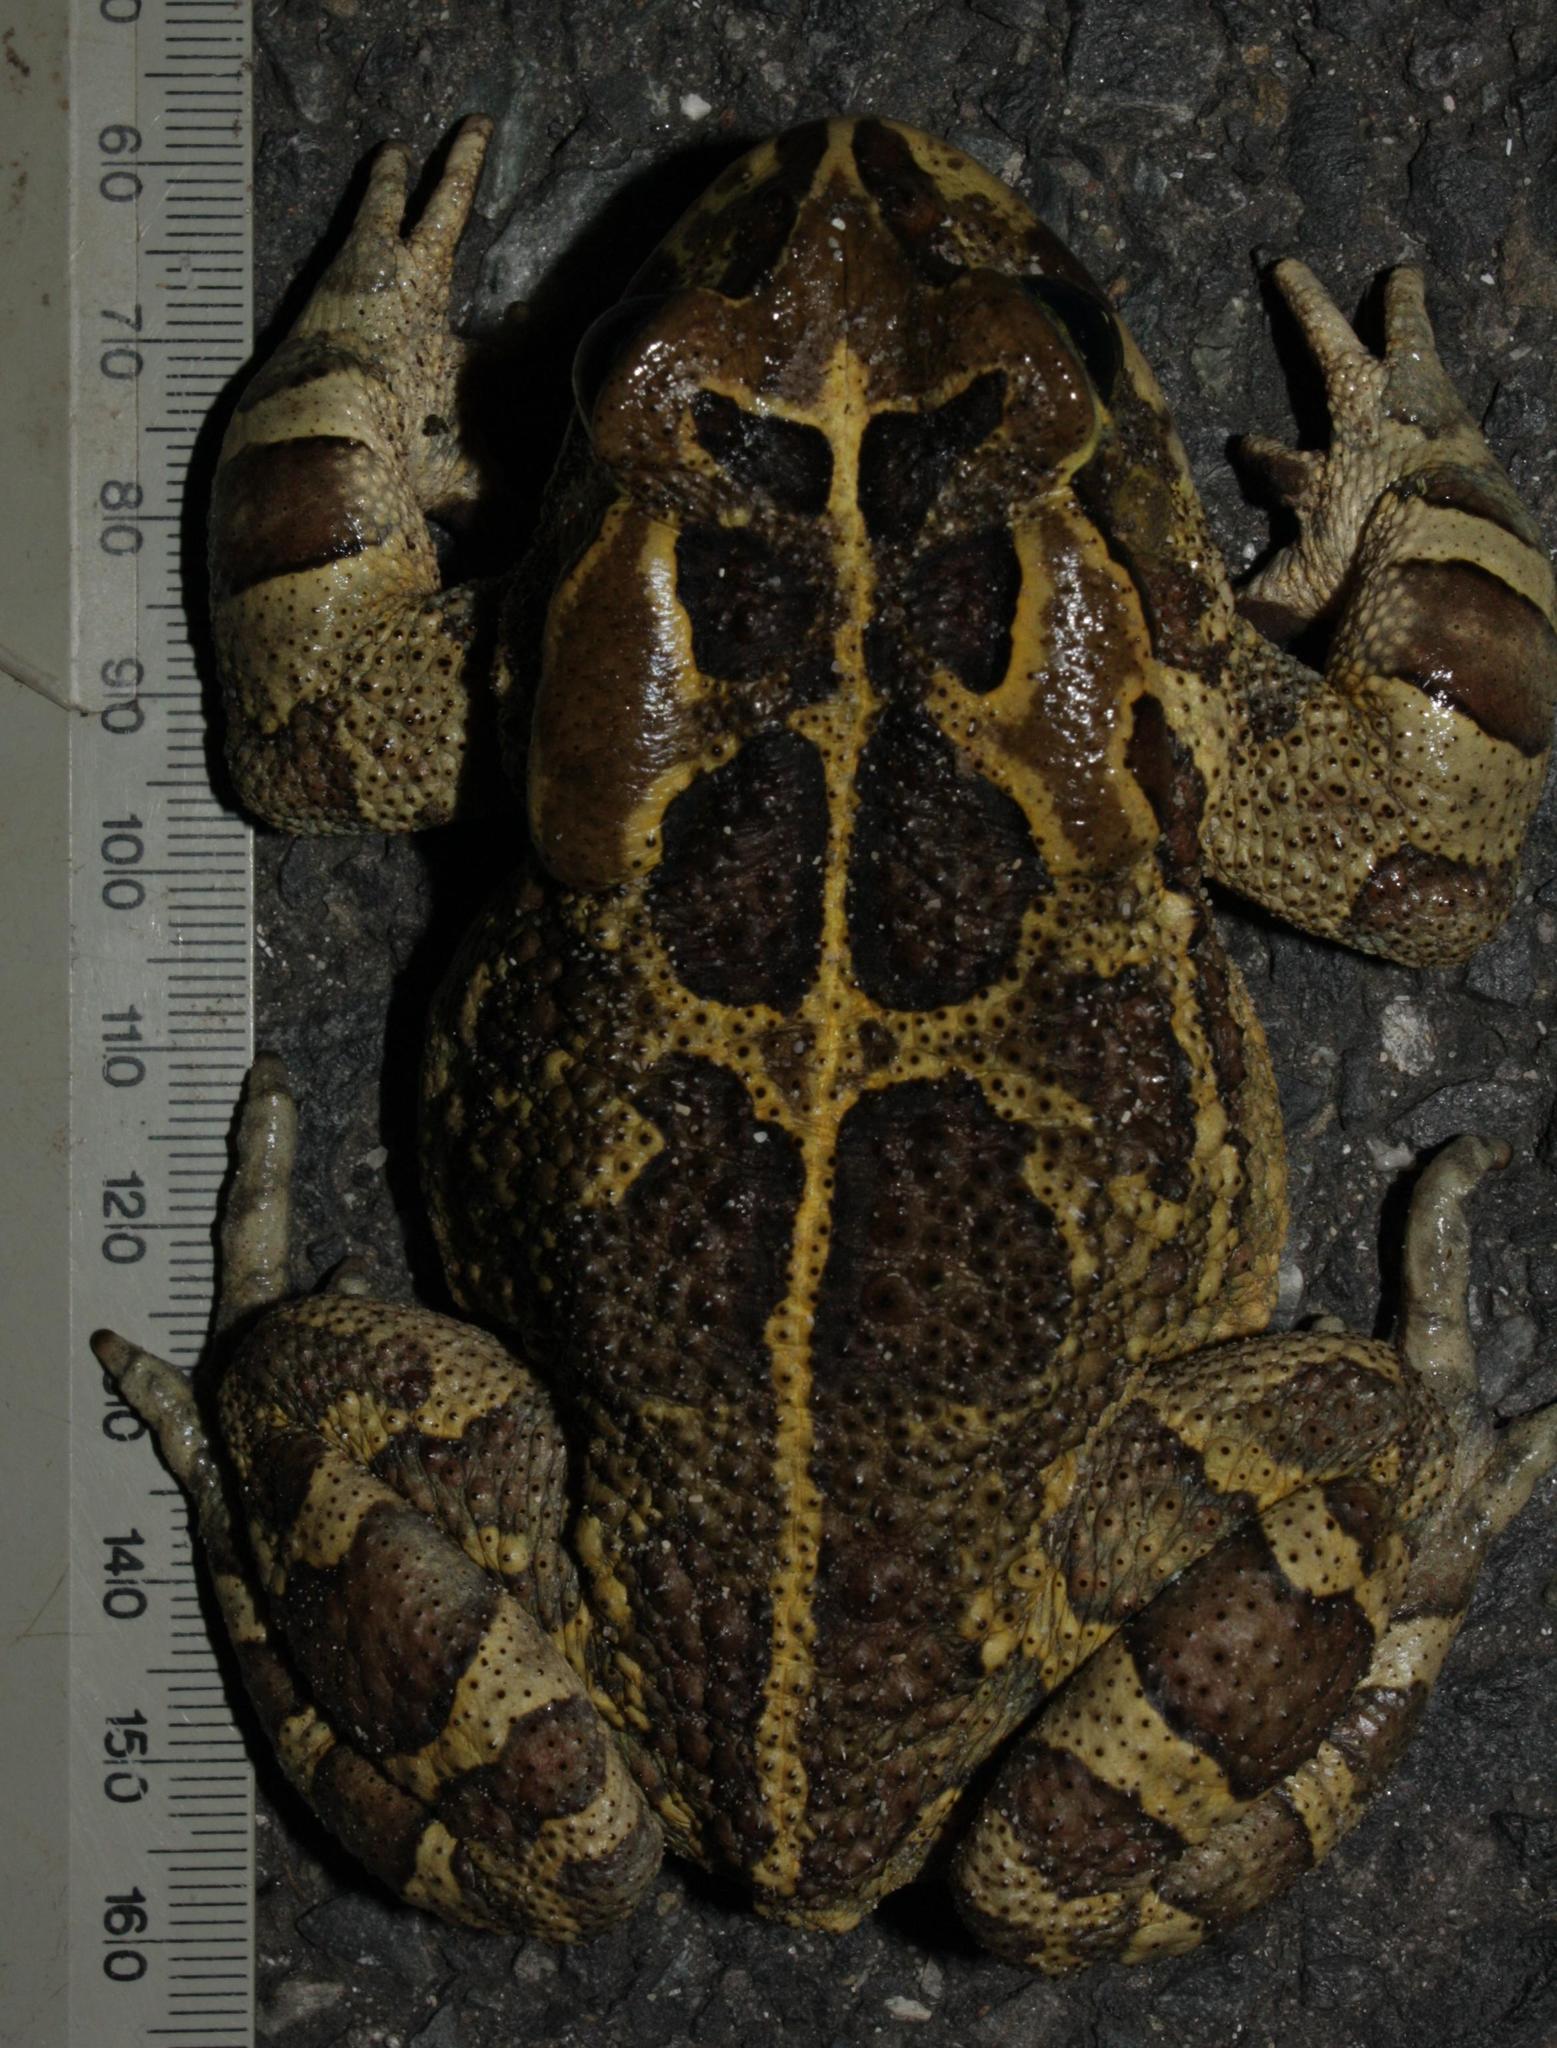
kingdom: Animalia
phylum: Chordata
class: Amphibia
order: Anura
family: Bufonidae
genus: Sclerophrys
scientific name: Sclerophrys pantherina
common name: Panther toad
